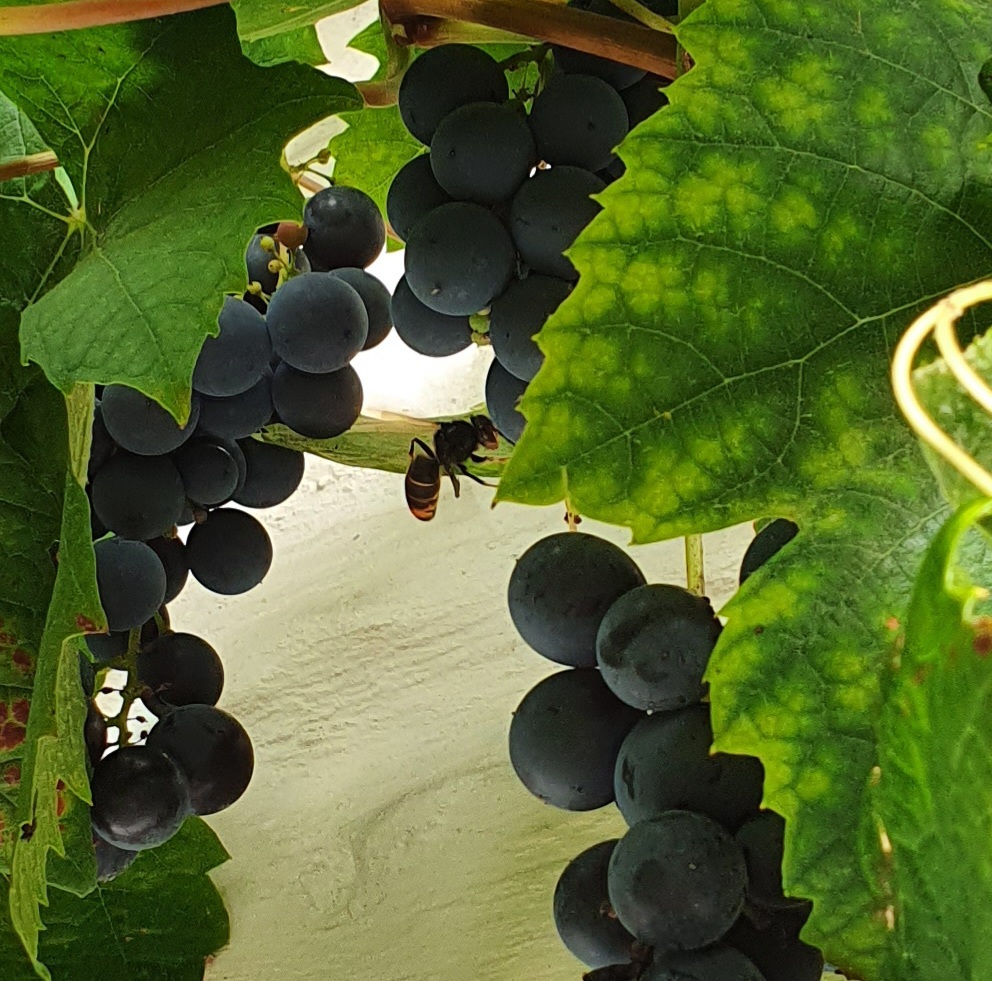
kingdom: Animalia
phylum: Arthropoda
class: Insecta
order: Hymenoptera
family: Vespidae
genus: Vespa
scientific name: Vespa velutina
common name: Asian hornet
